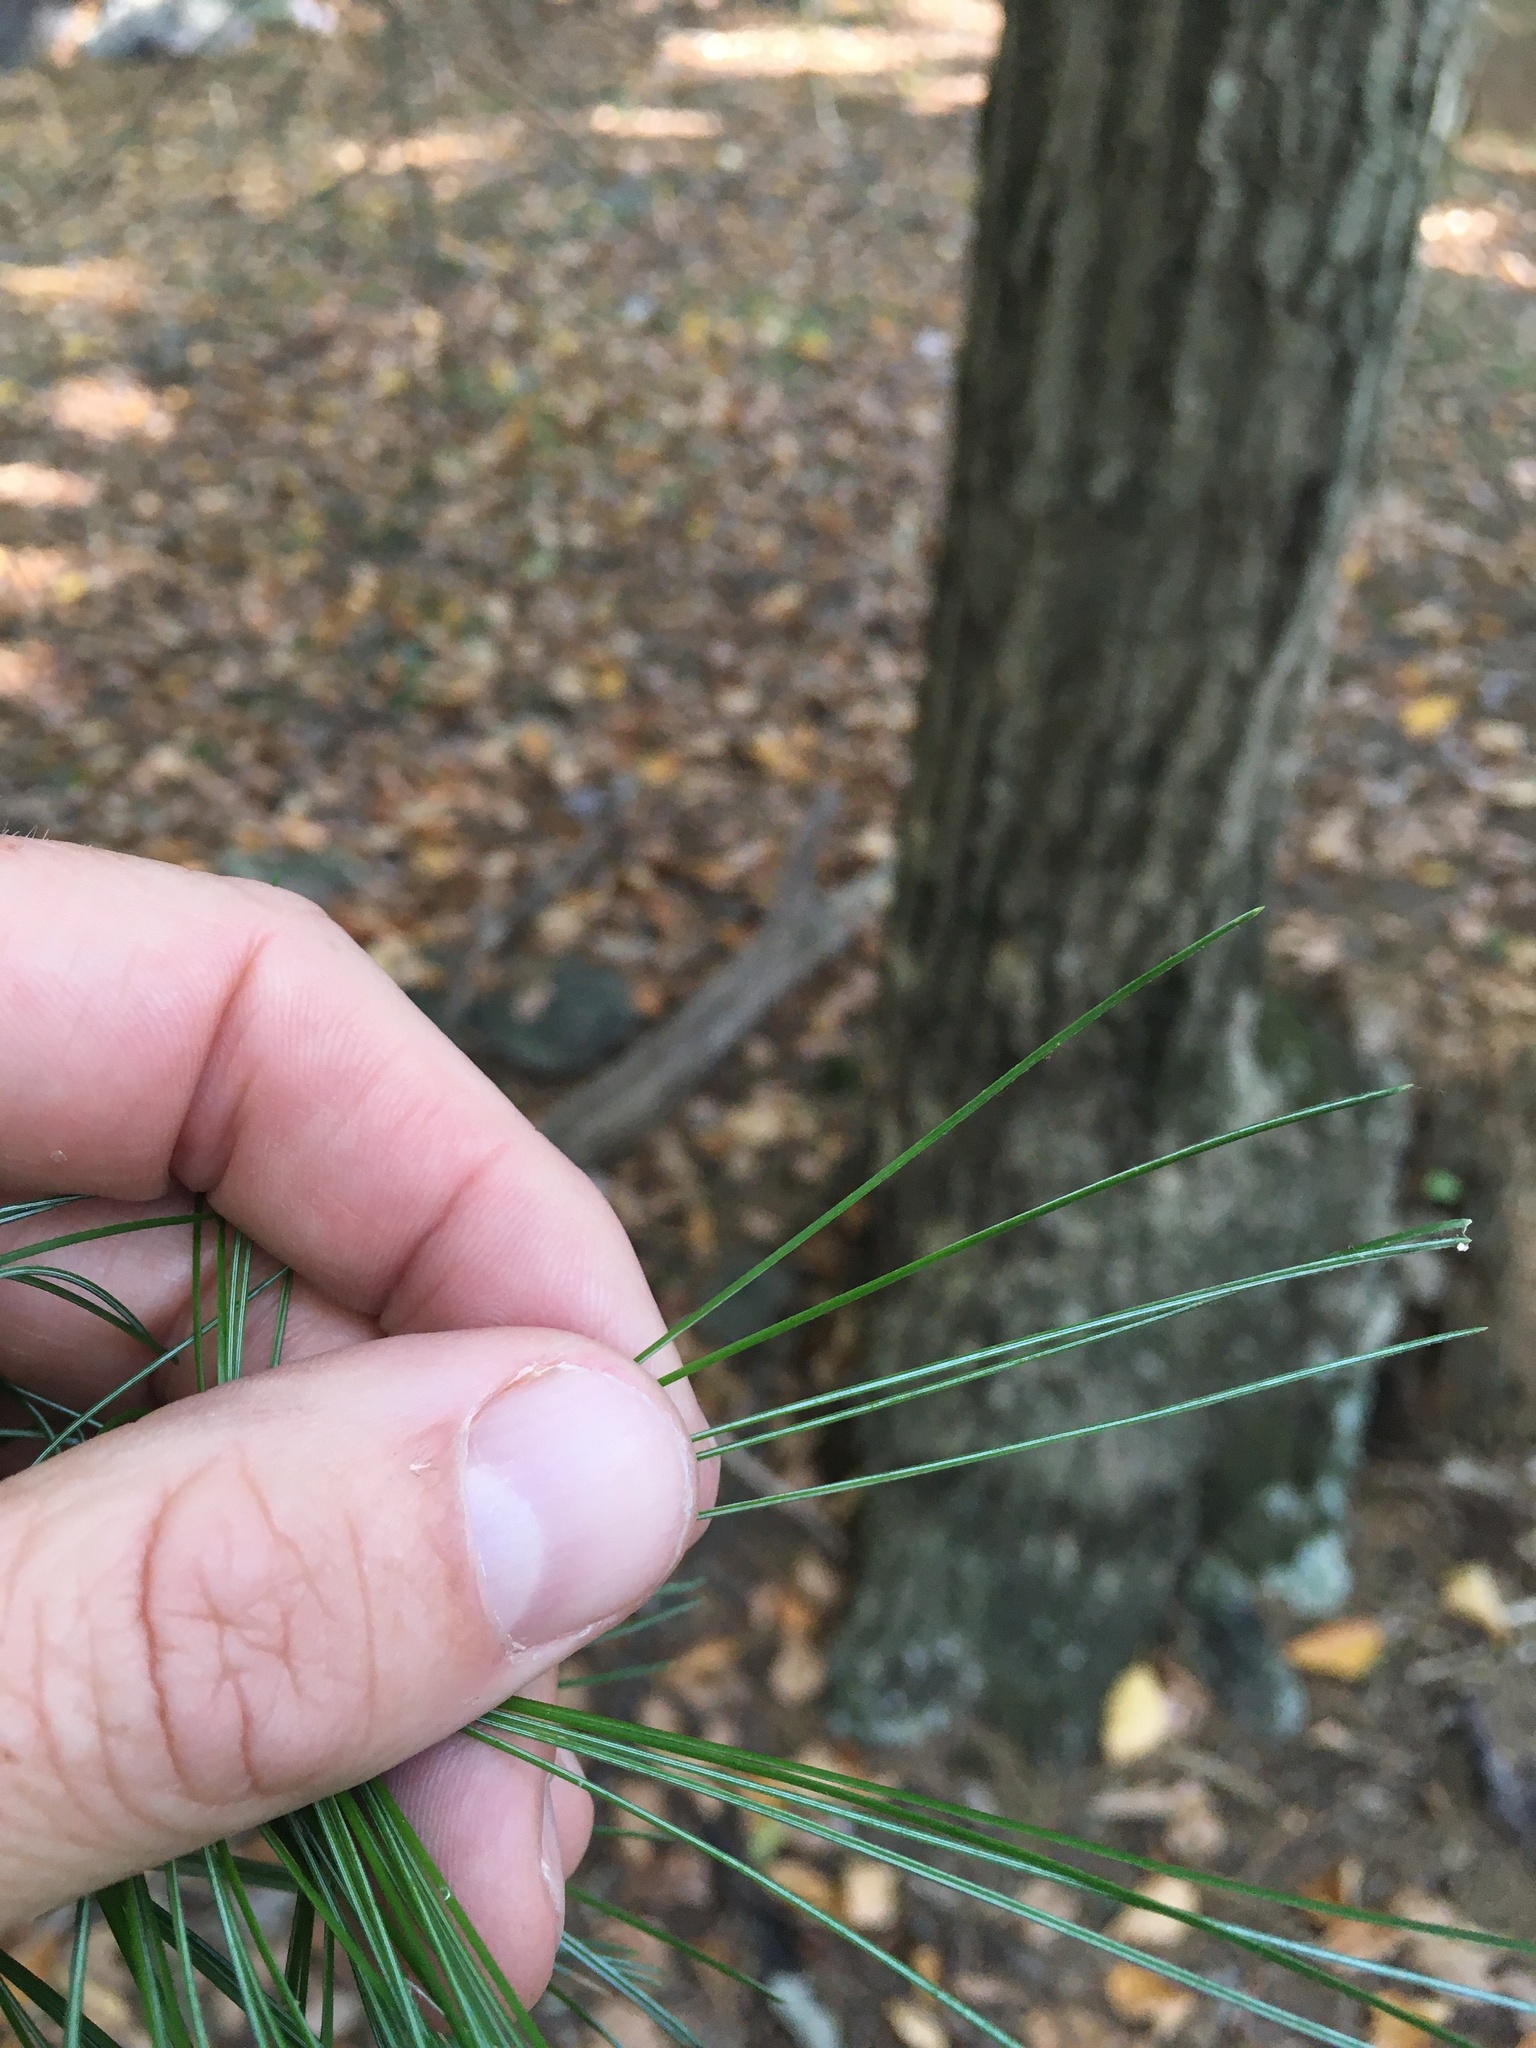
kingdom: Plantae
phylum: Tracheophyta
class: Pinopsida
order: Pinales
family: Pinaceae
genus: Pinus
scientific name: Pinus strobus
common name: Weymouth pine
